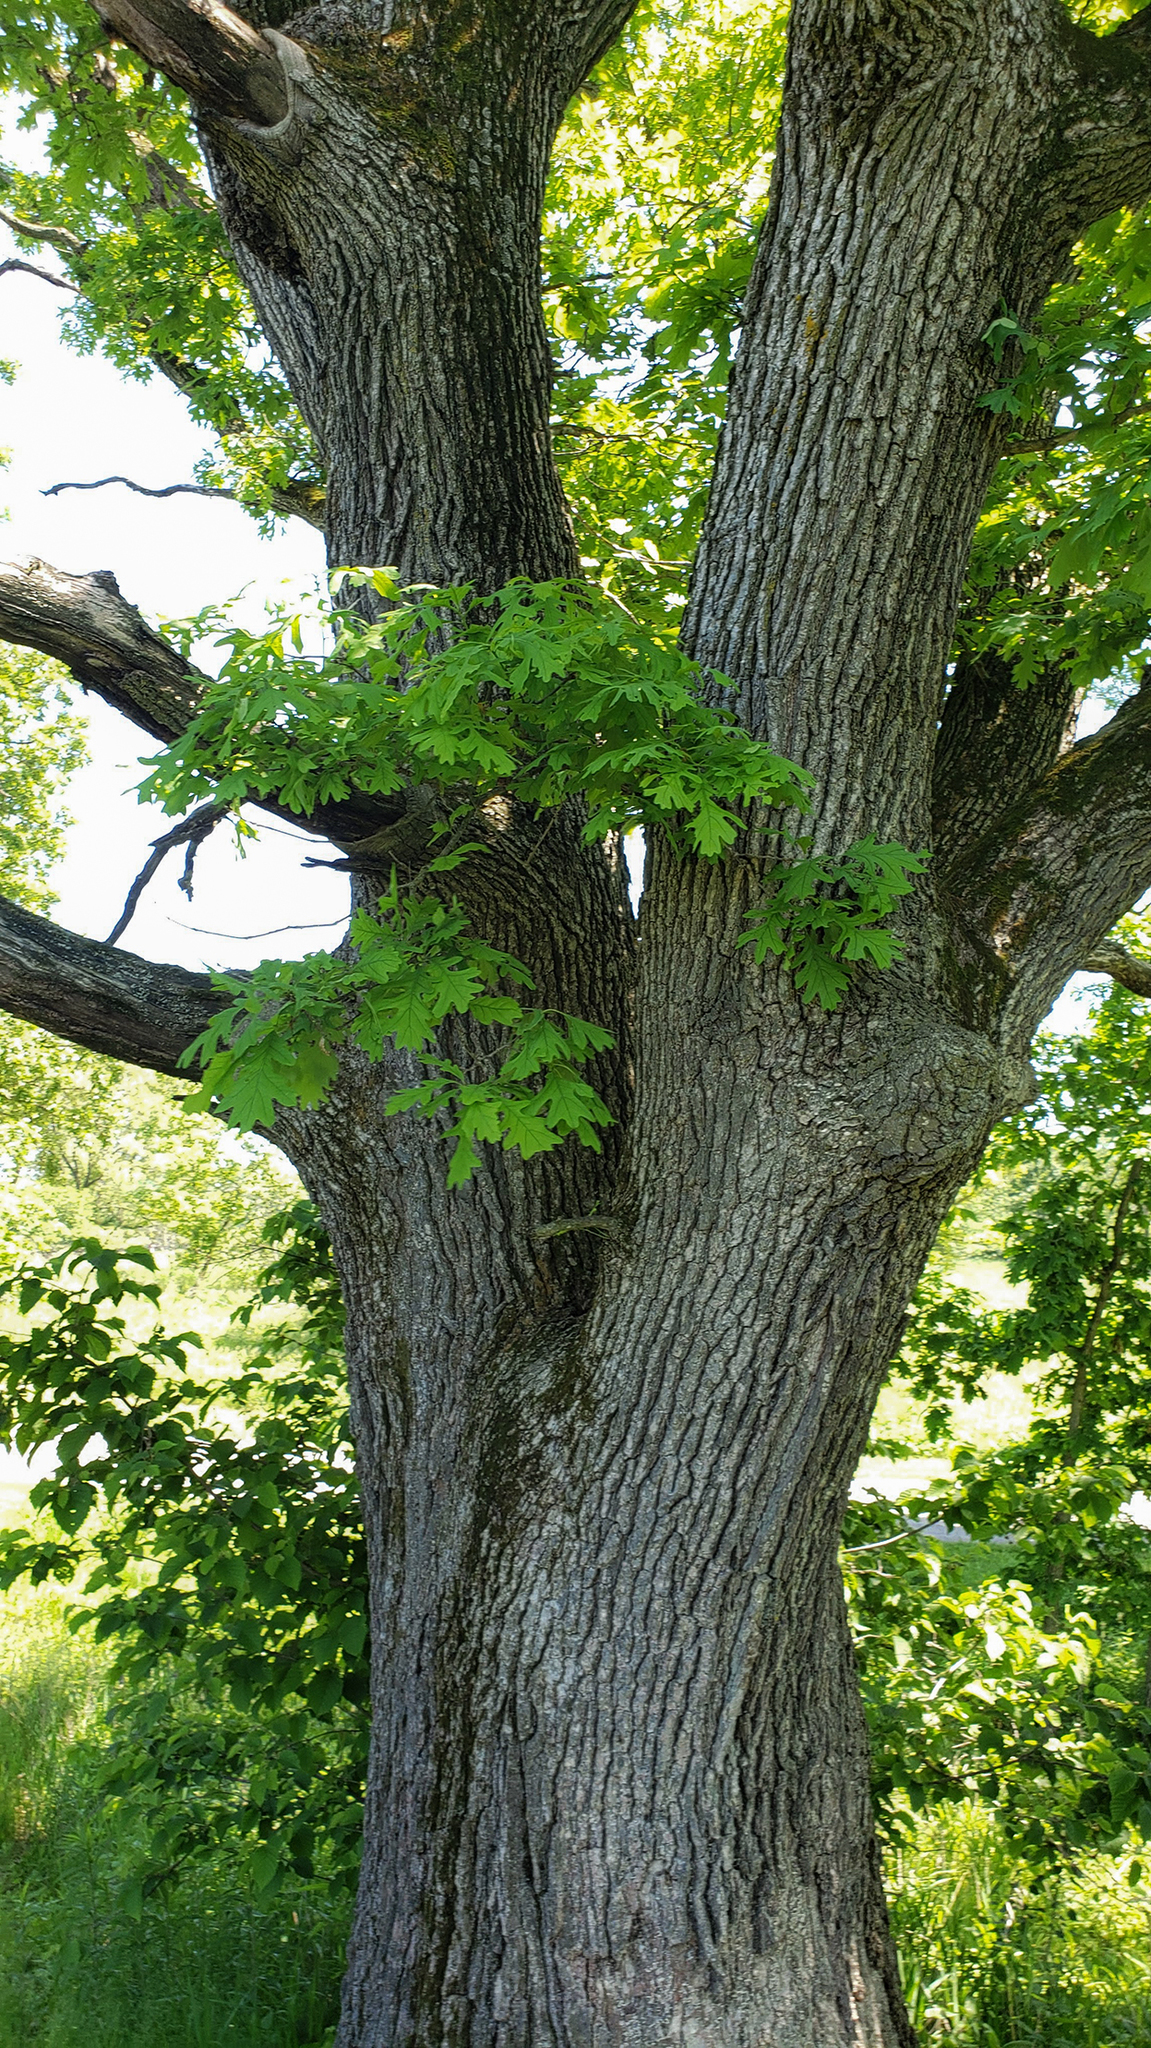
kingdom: Plantae
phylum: Tracheophyta
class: Magnoliopsida
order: Fagales
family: Fagaceae
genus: Quercus
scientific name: Quercus alba
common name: White oak
